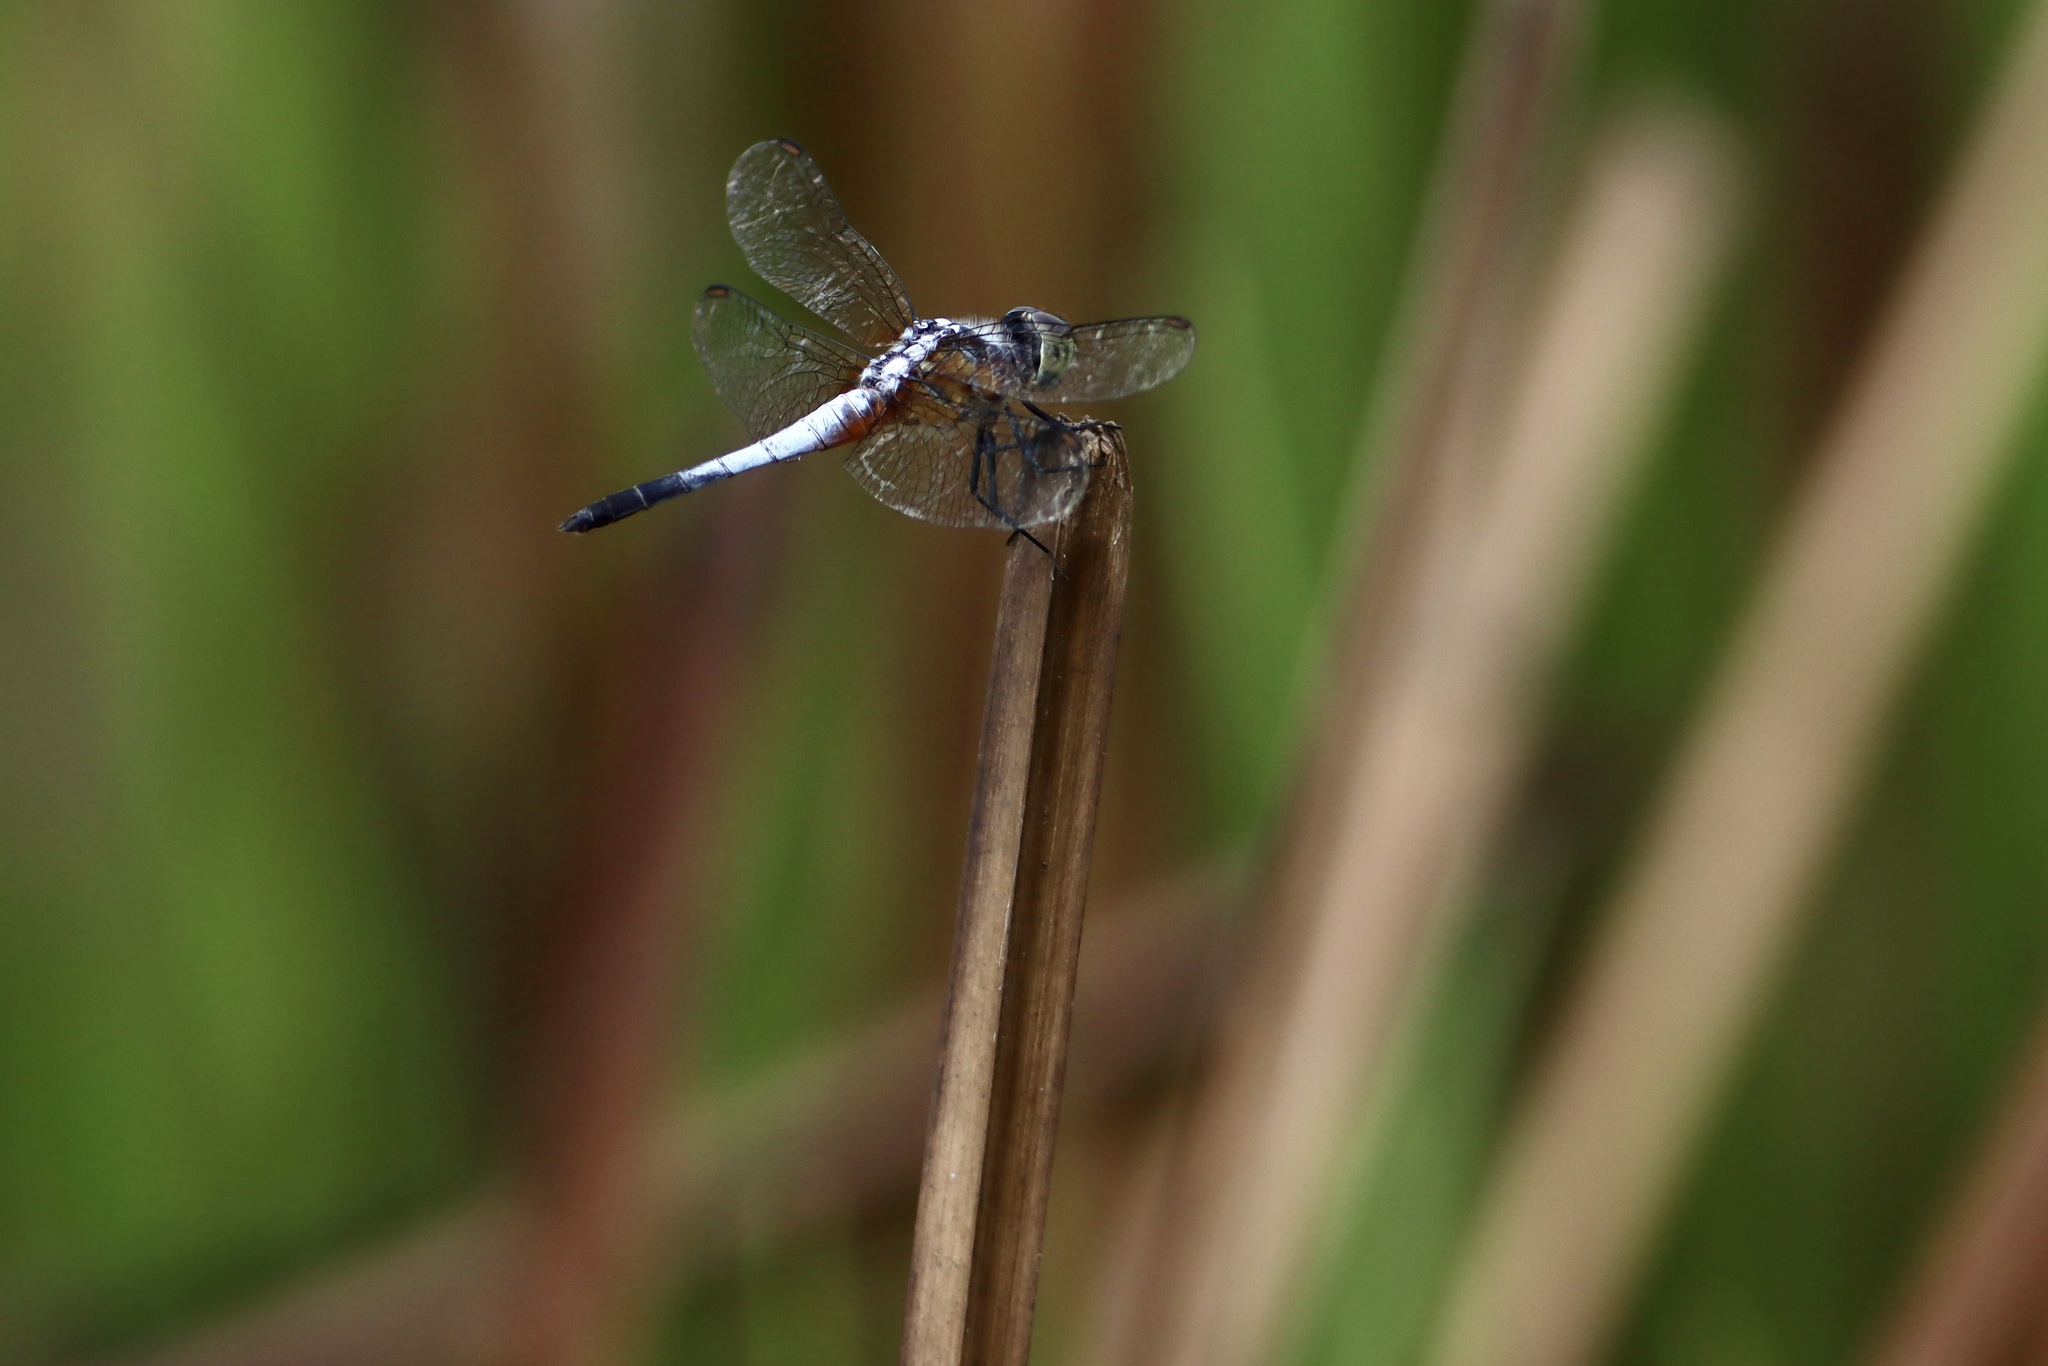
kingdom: Animalia
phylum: Arthropoda
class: Insecta
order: Odonata
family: Libellulidae
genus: Brachydiplax
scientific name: Brachydiplax chalybea
